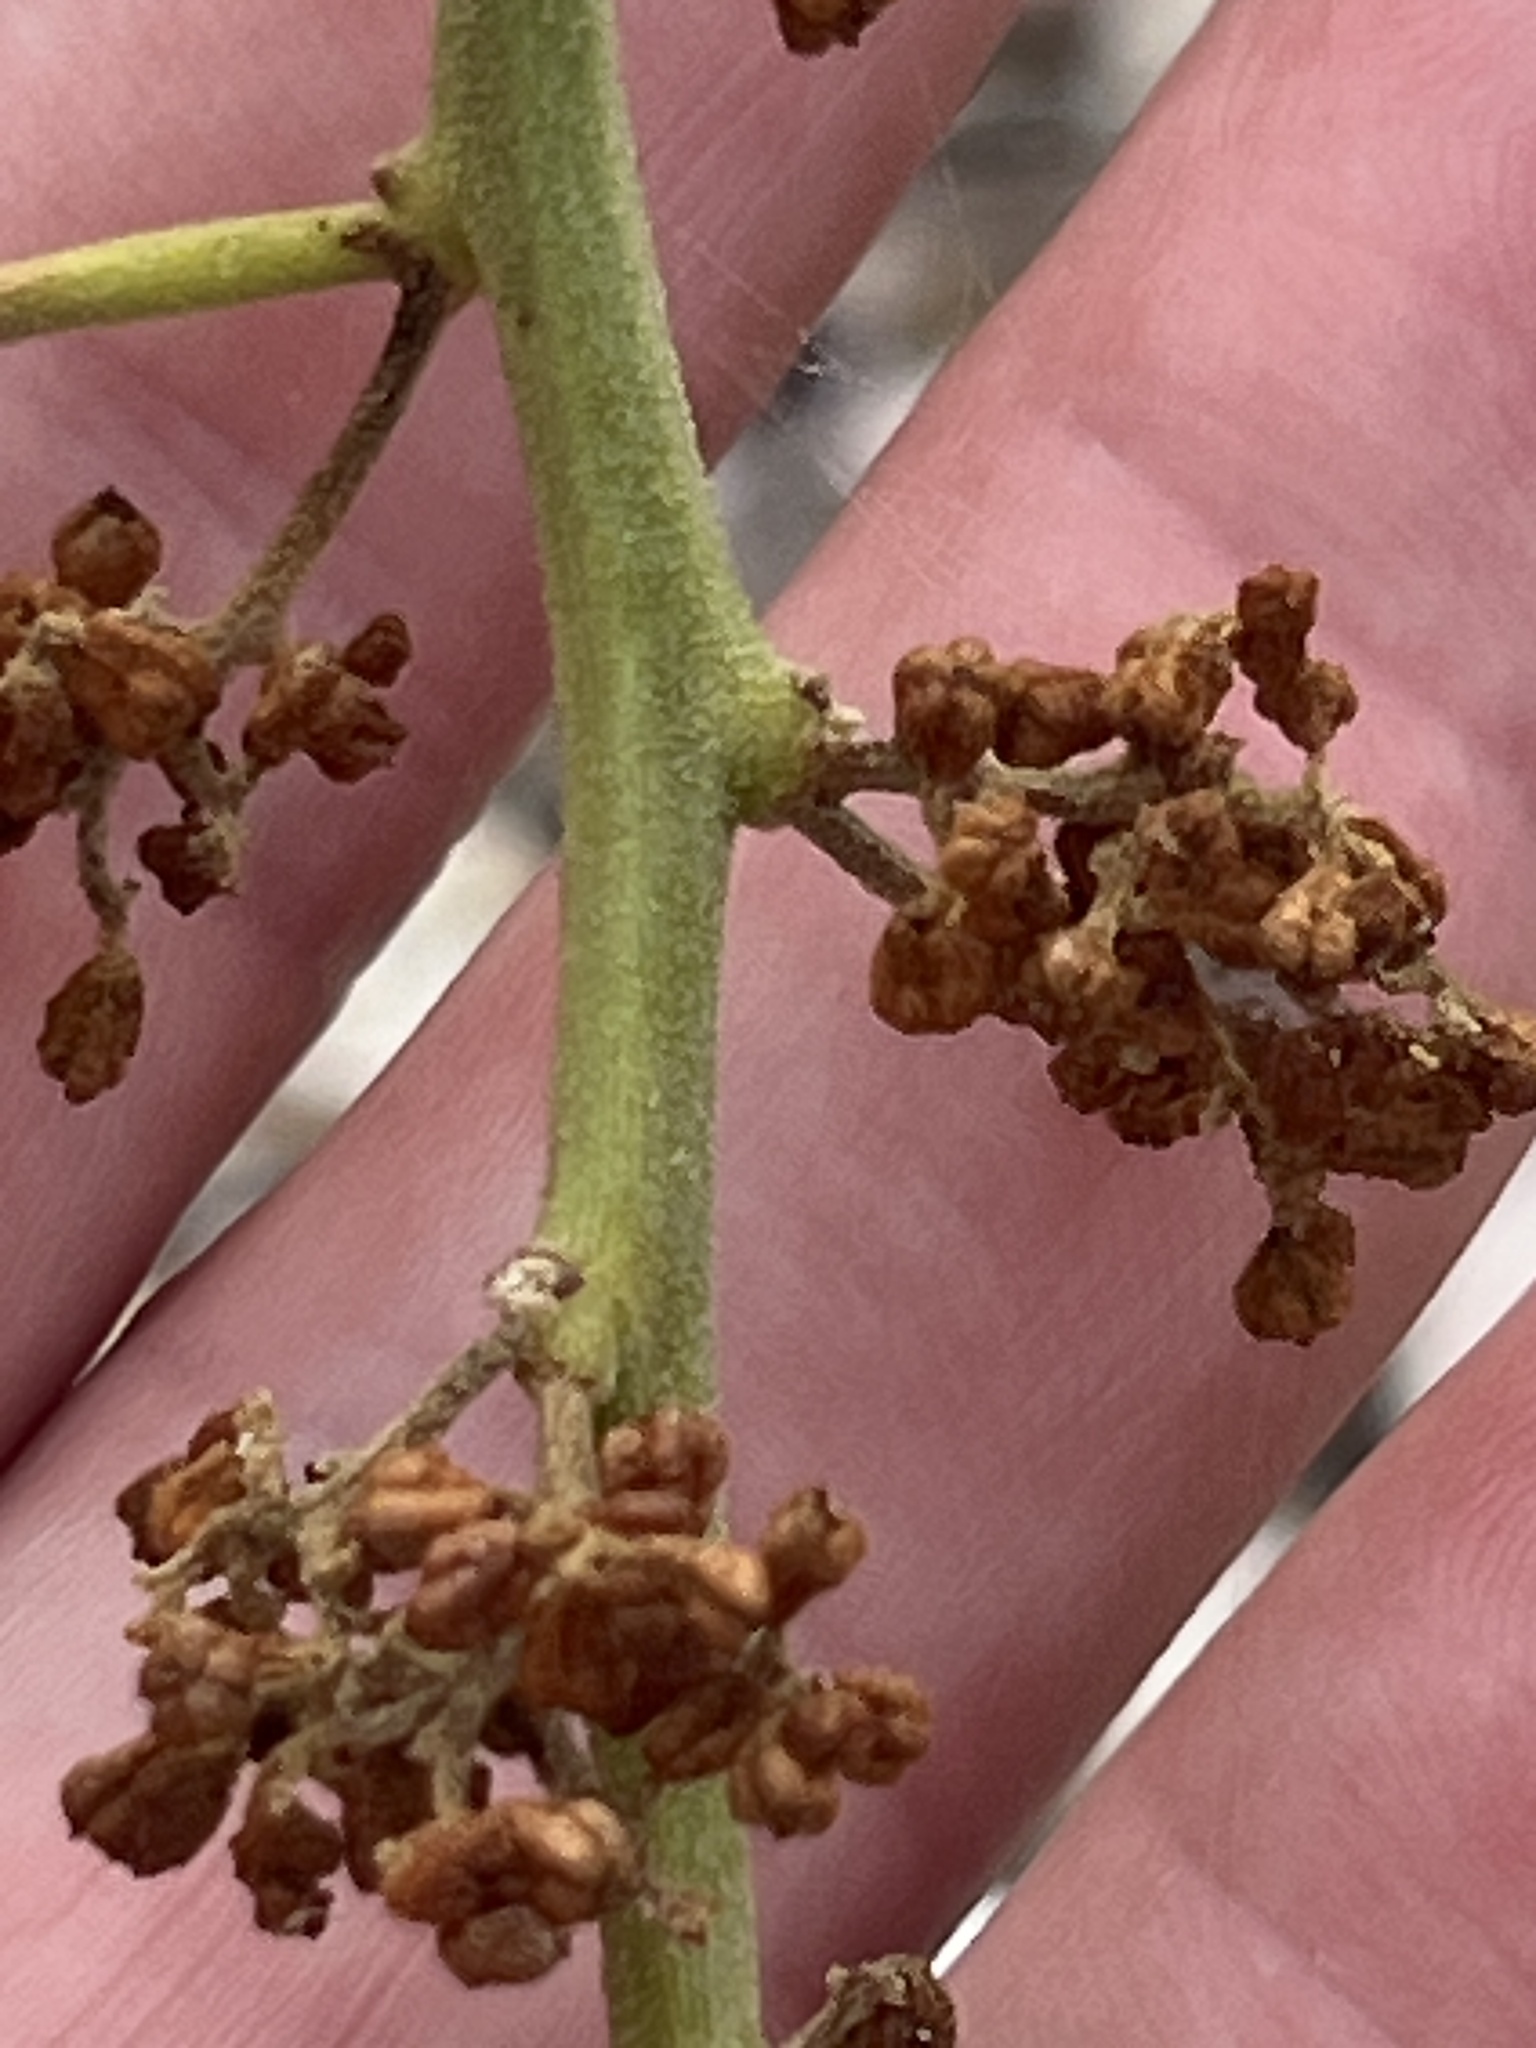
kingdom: Plantae
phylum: Tracheophyta
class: Magnoliopsida
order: Caryophyllales
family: Nyctaginaceae
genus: Cryptocarpus
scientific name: Cryptocarpus pyriformis
